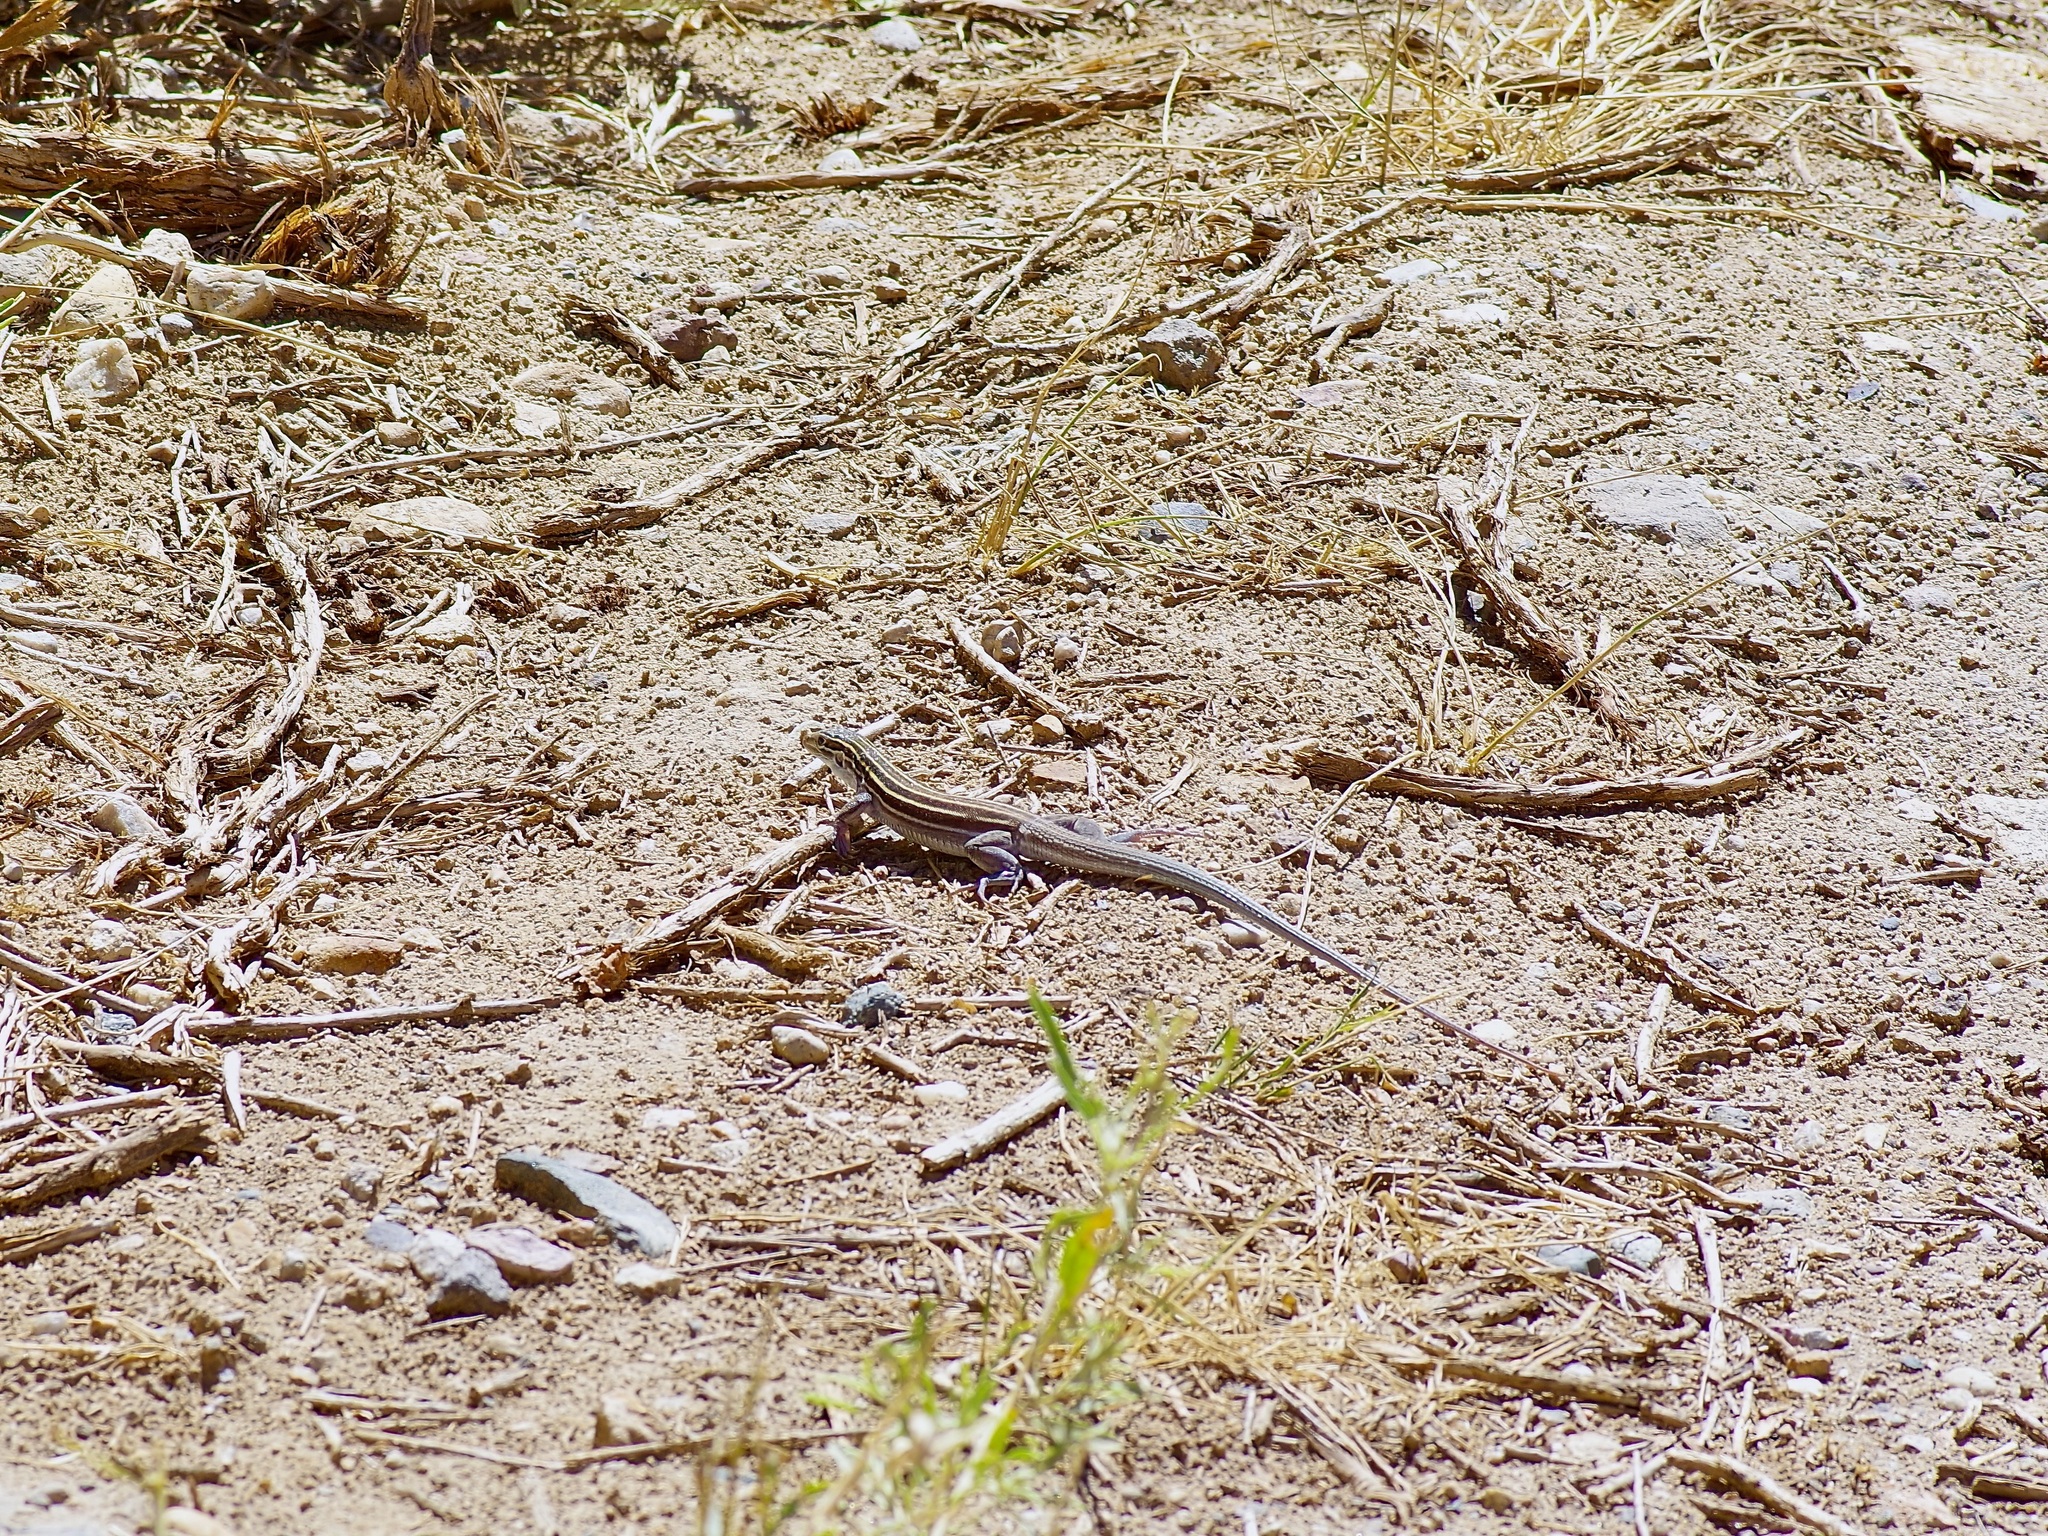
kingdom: Animalia
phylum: Chordata
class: Squamata
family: Teiidae
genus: Aspidoscelis
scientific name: Aspidoscelis velox
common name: Plateau striped whiptail
